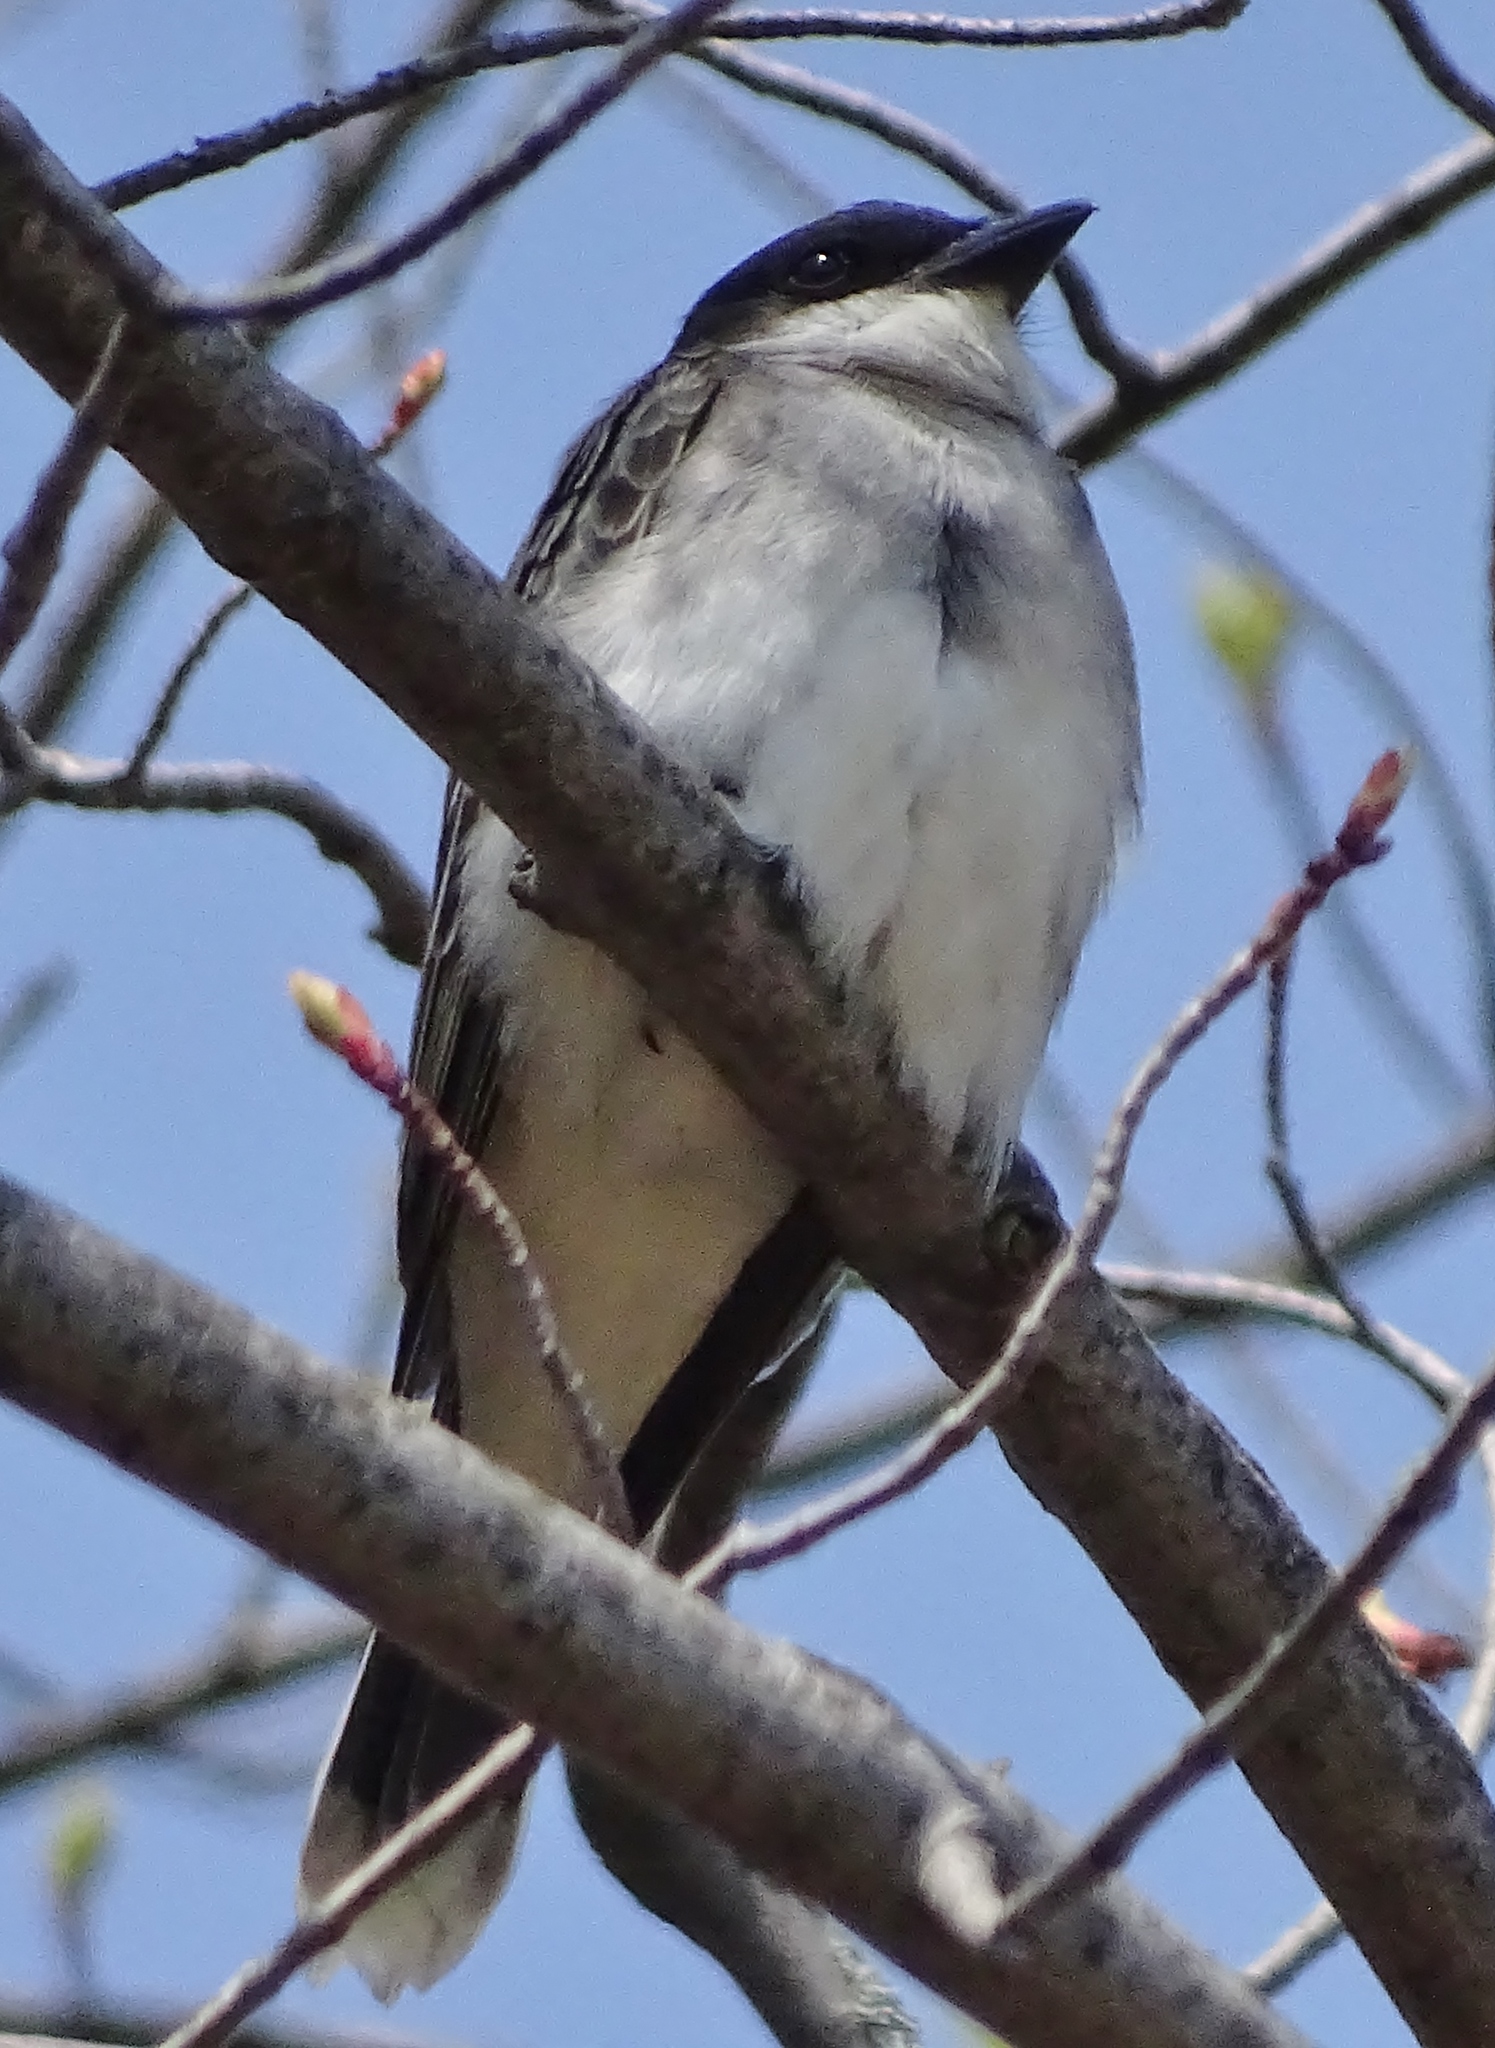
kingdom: Animalia
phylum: Chordata
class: Aves
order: Passeriformes
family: Tyrannidae
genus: Tyrannus
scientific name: Tyrannus tyrannus
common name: Eastern kingbird
